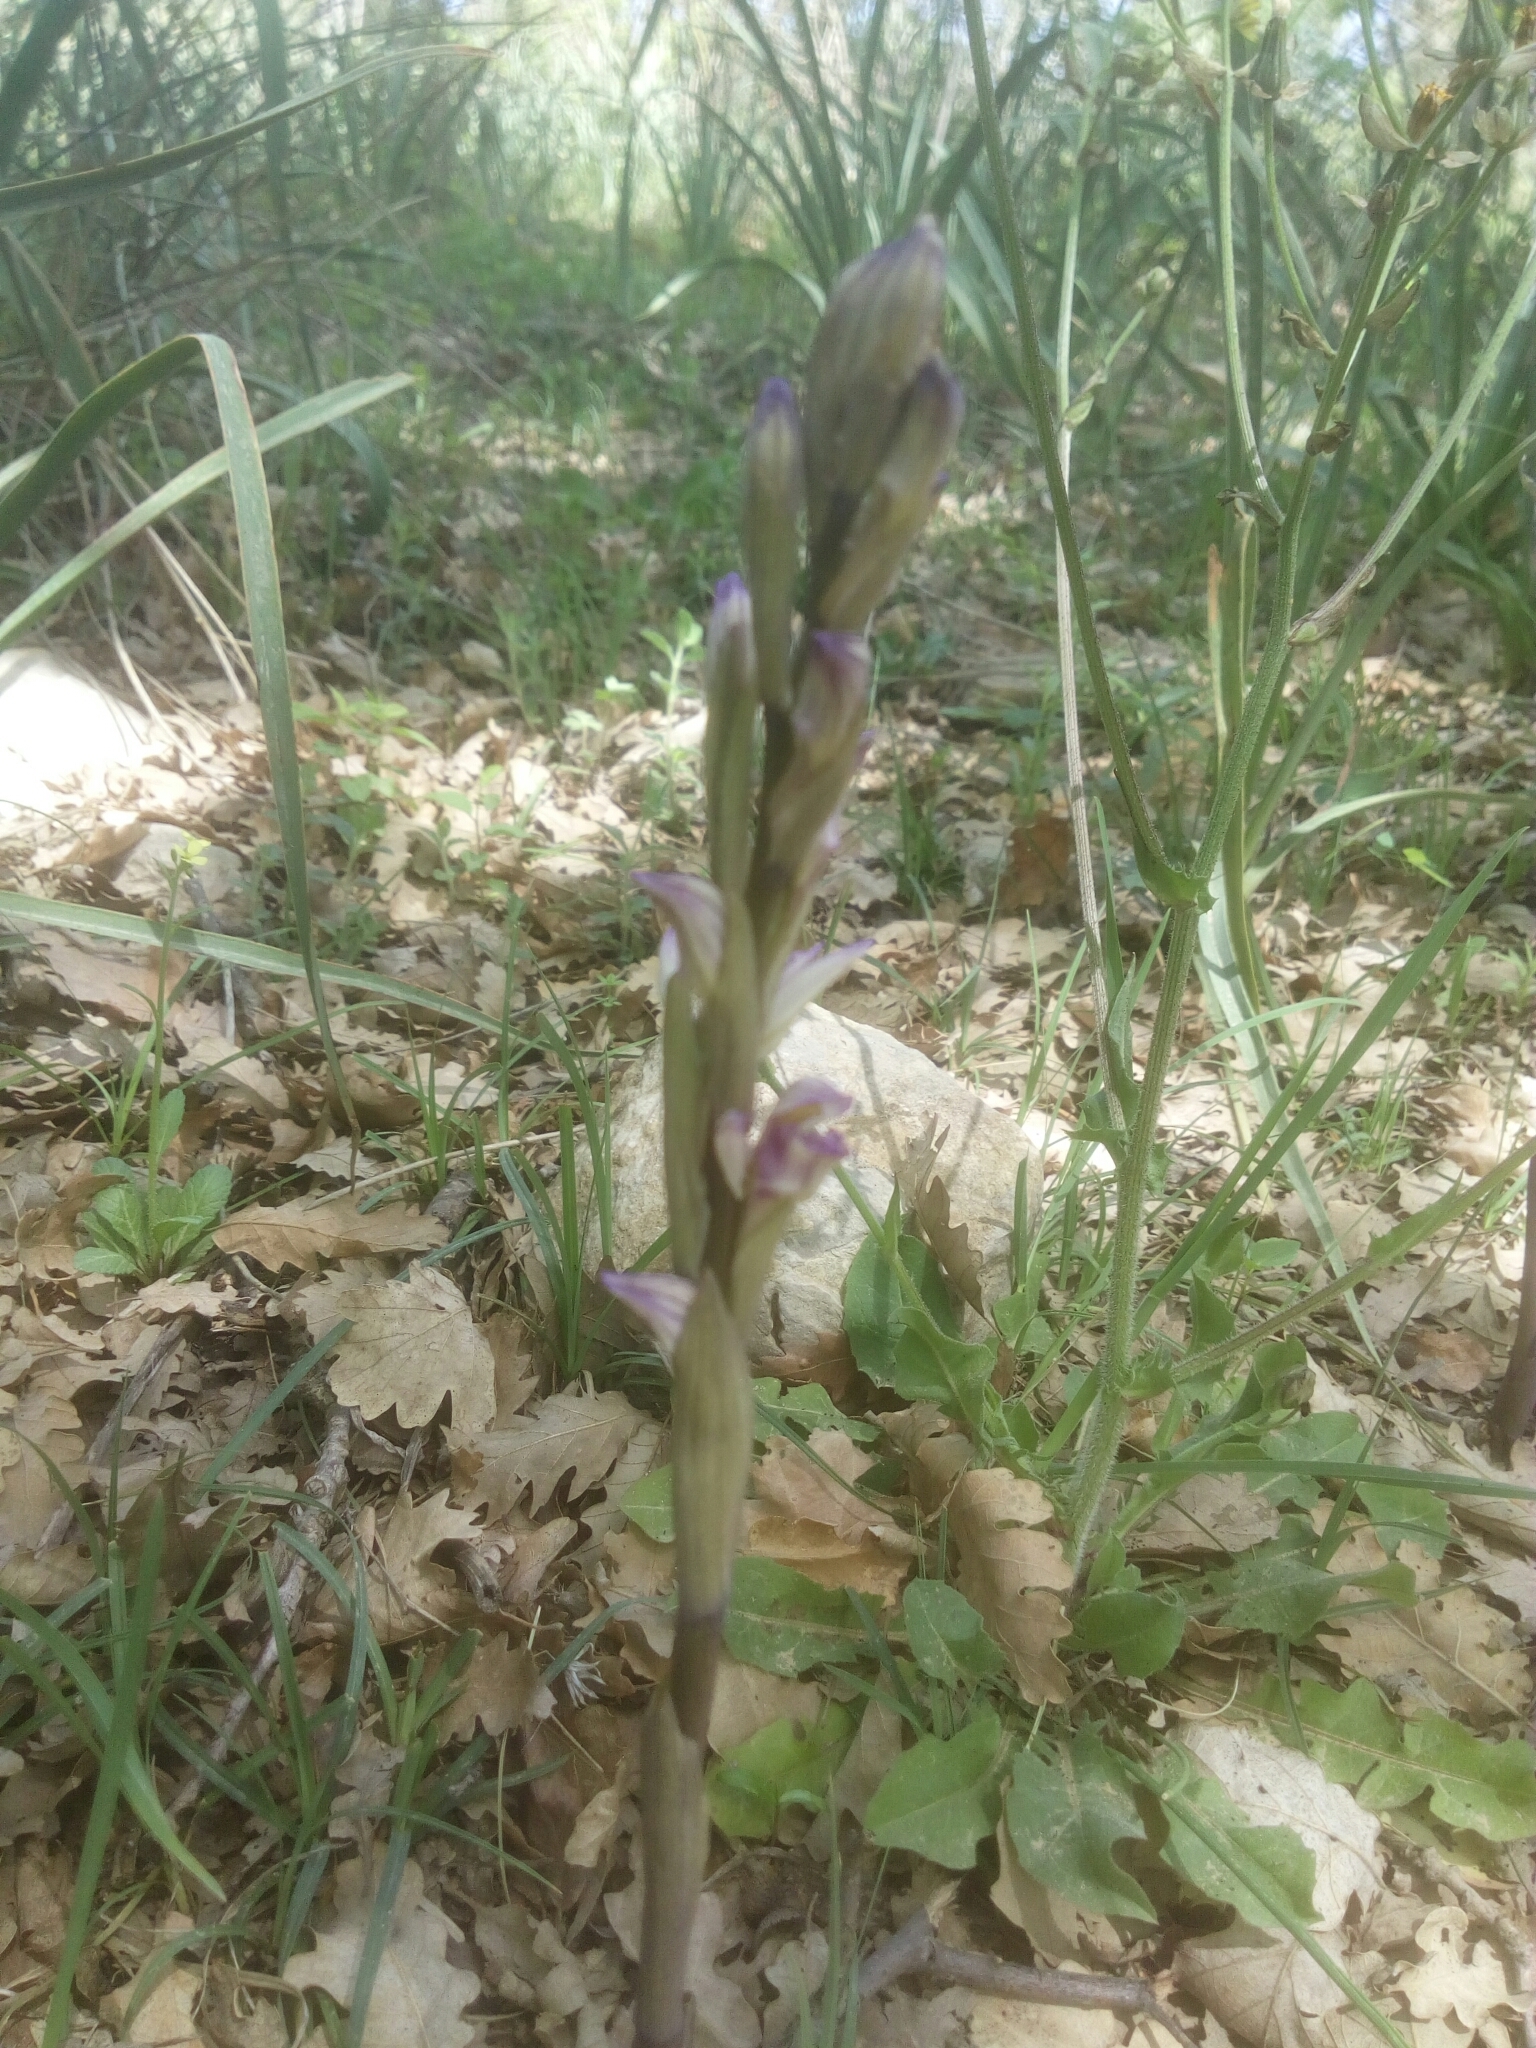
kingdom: Plantae
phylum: Tracheophyta
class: Liliopsida
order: Asparagales
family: Orchidaceae
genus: Limodorum
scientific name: Limodorum abortivum
